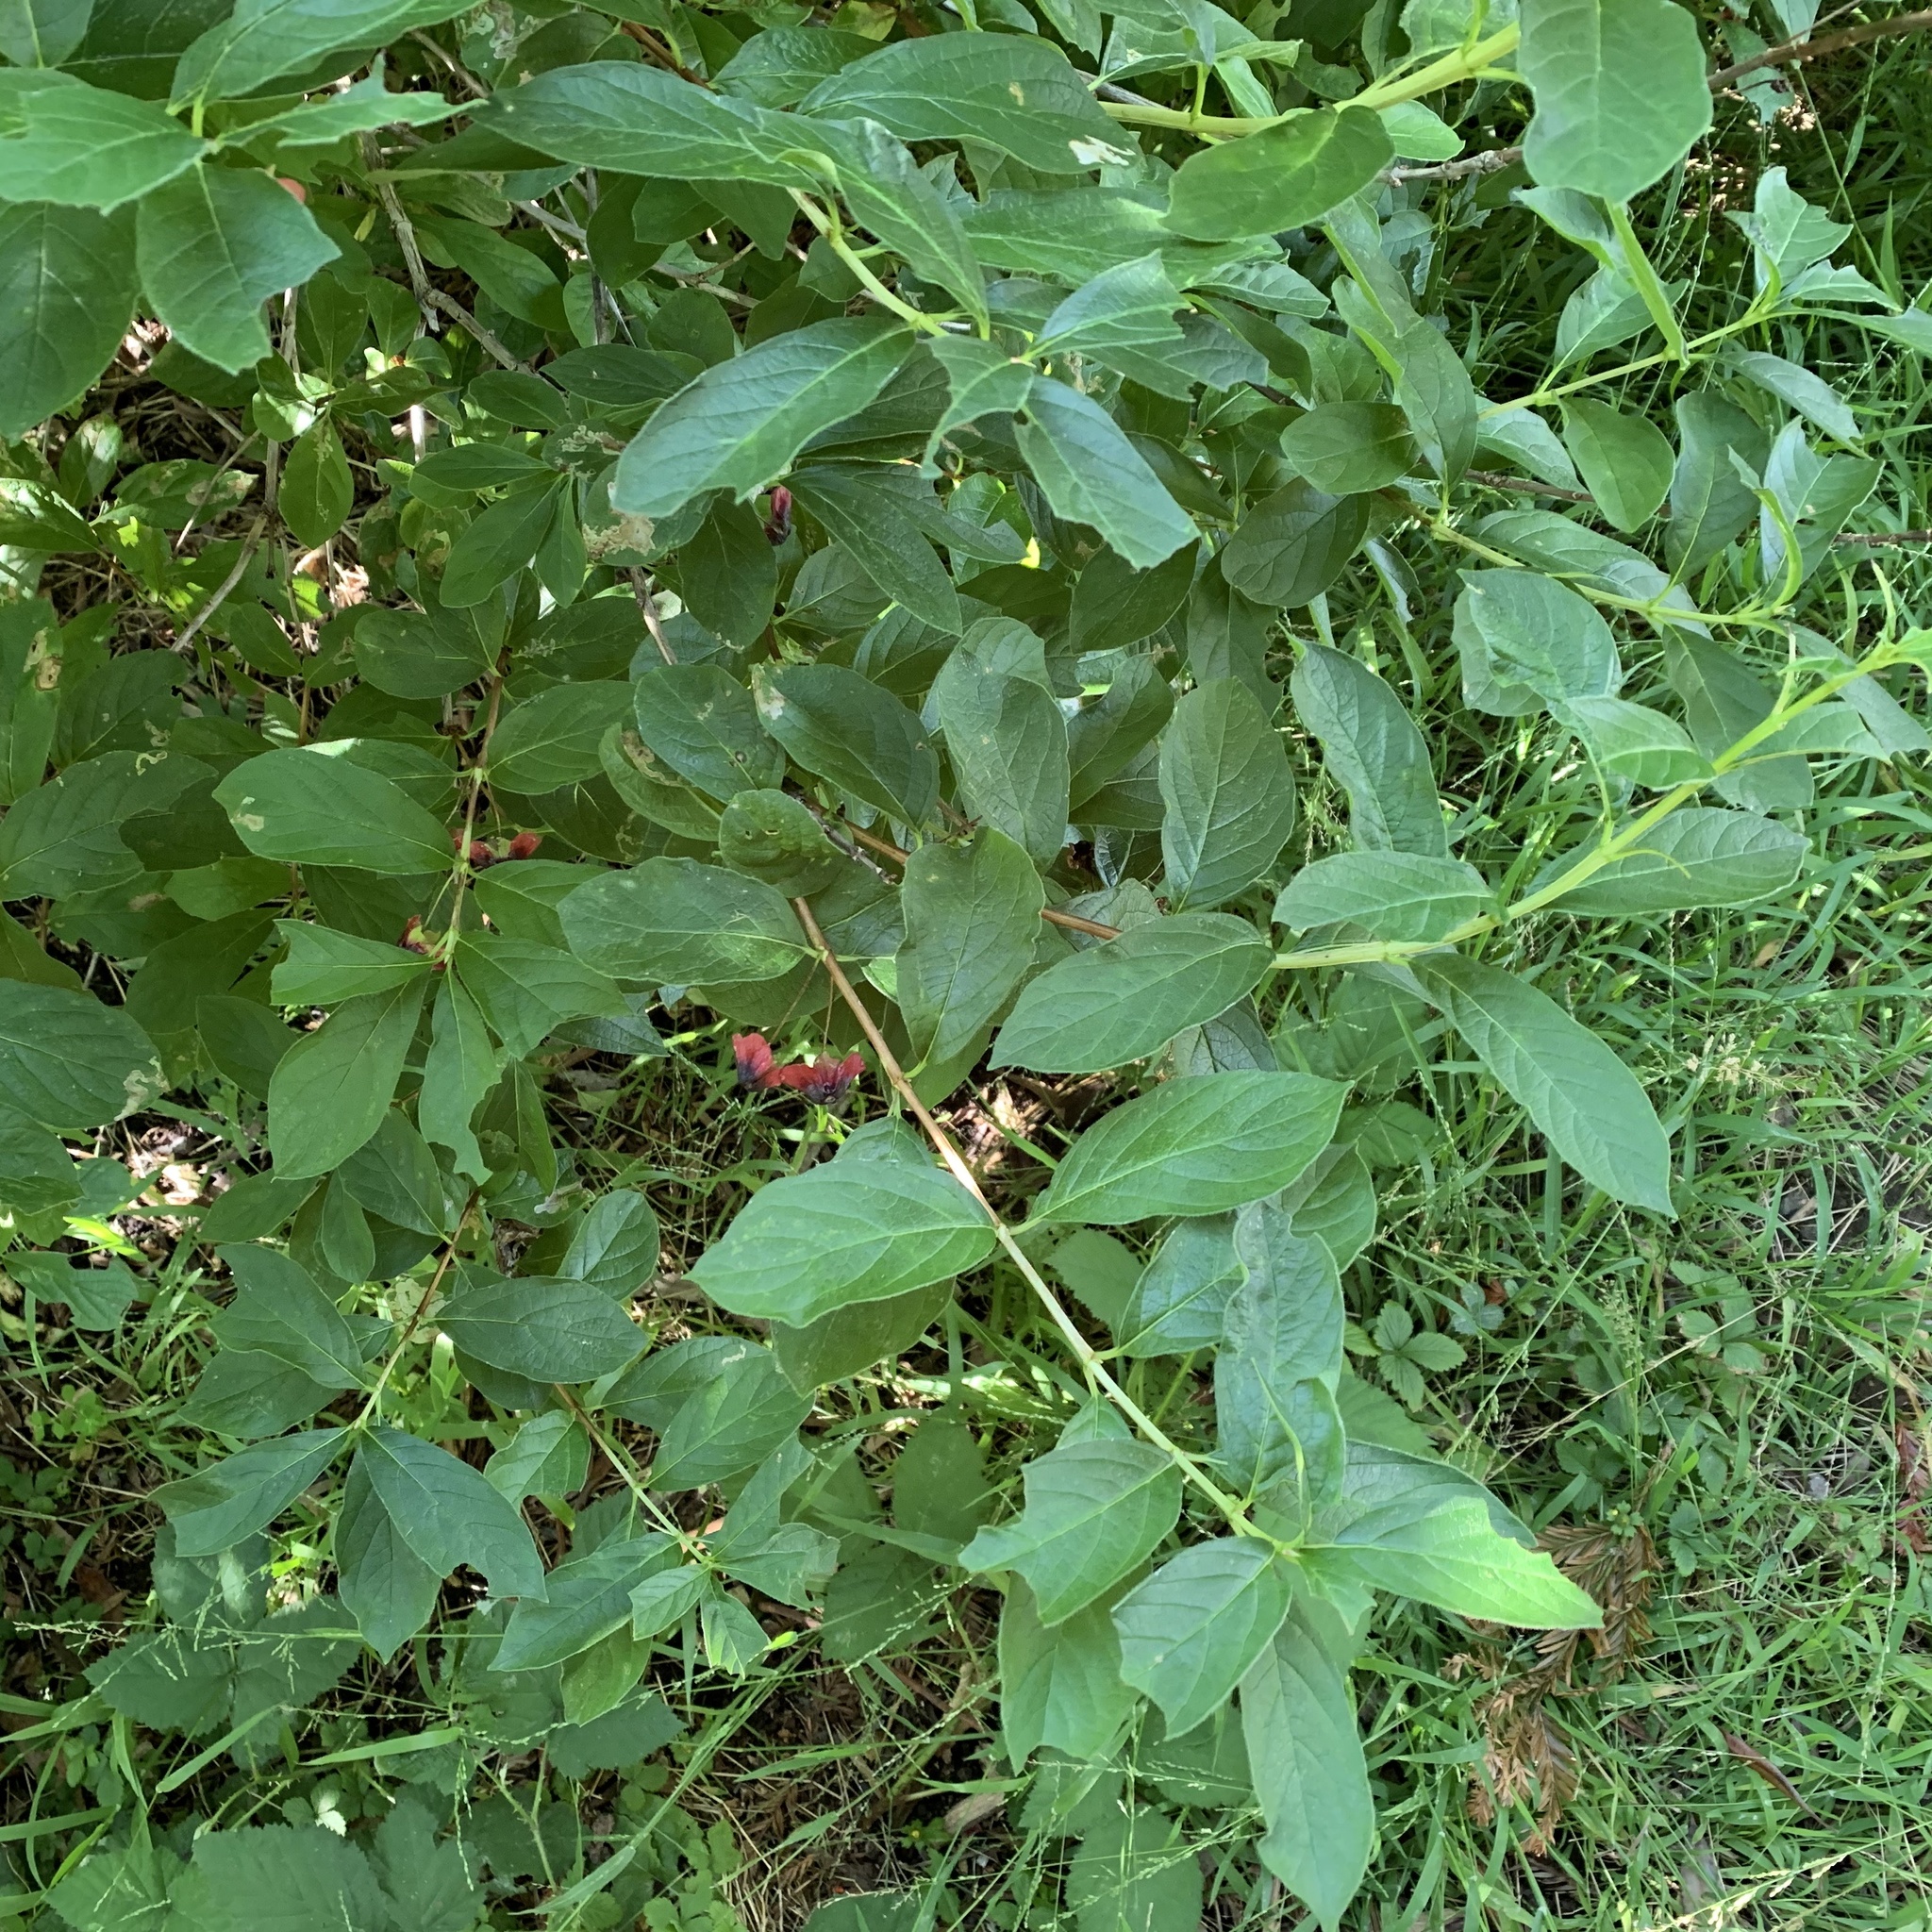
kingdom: Plantae
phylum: Tracheophyta
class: Magnoliopsida
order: Dipsacales
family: Caprifoliaceae
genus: Lonicera
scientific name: Lonicera involucrata
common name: Californian honeysuckle
